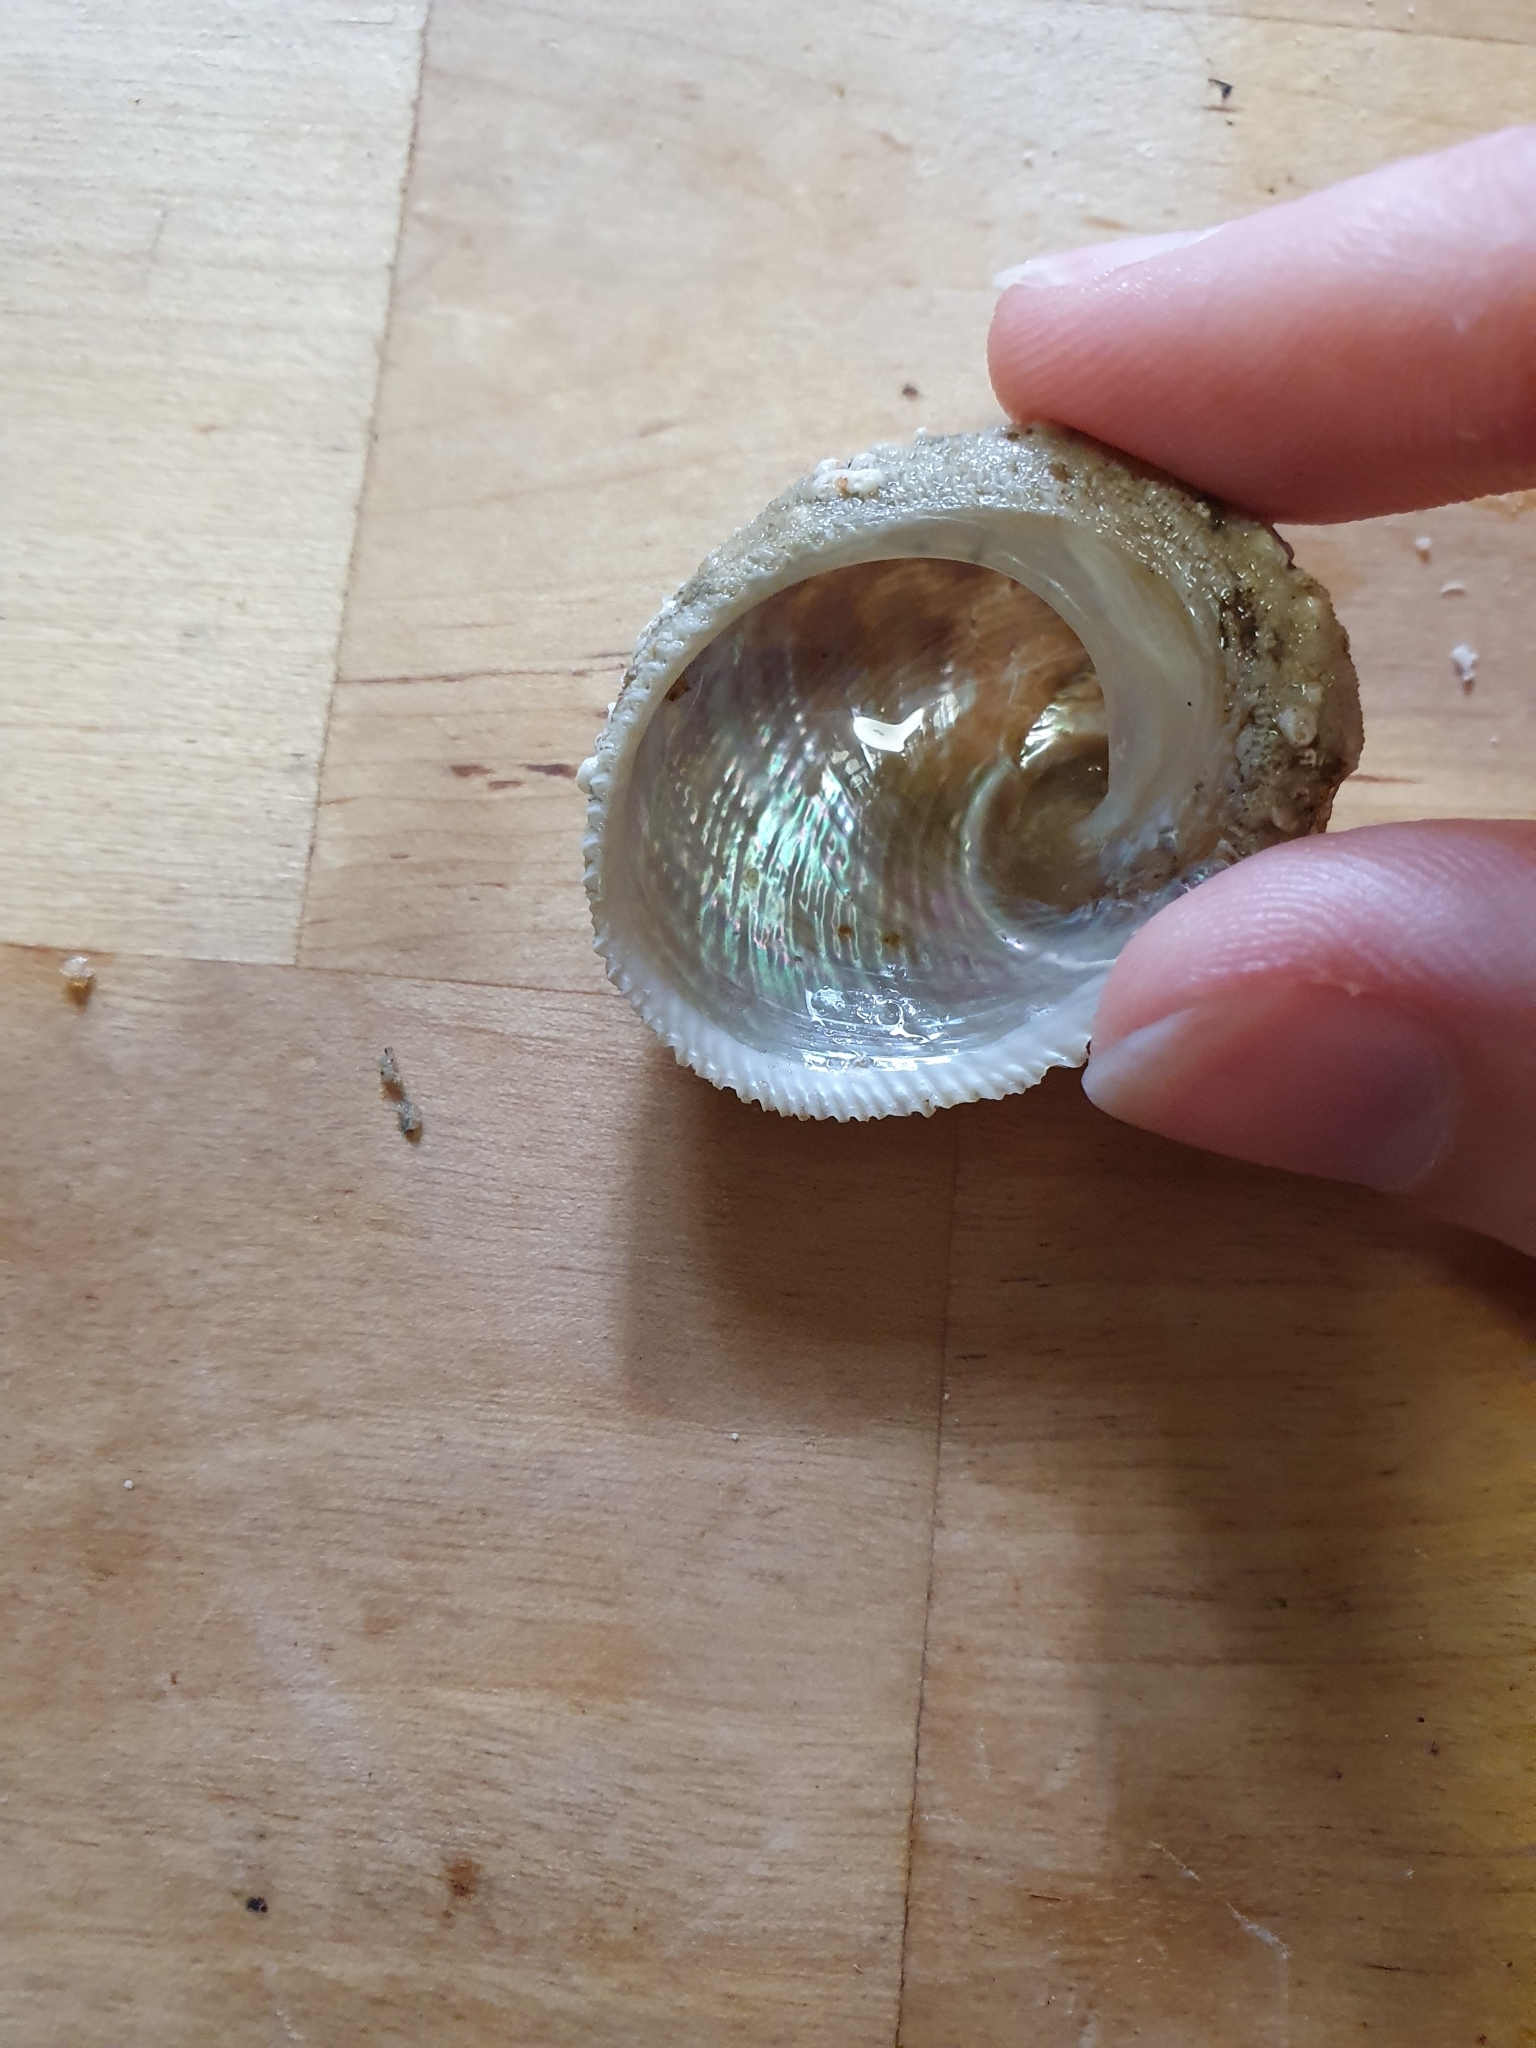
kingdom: Animalia
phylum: Mollusca
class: Gastropoda
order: Seguenziida
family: Chilodontaidae
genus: Granata
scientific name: Granata imbricata
